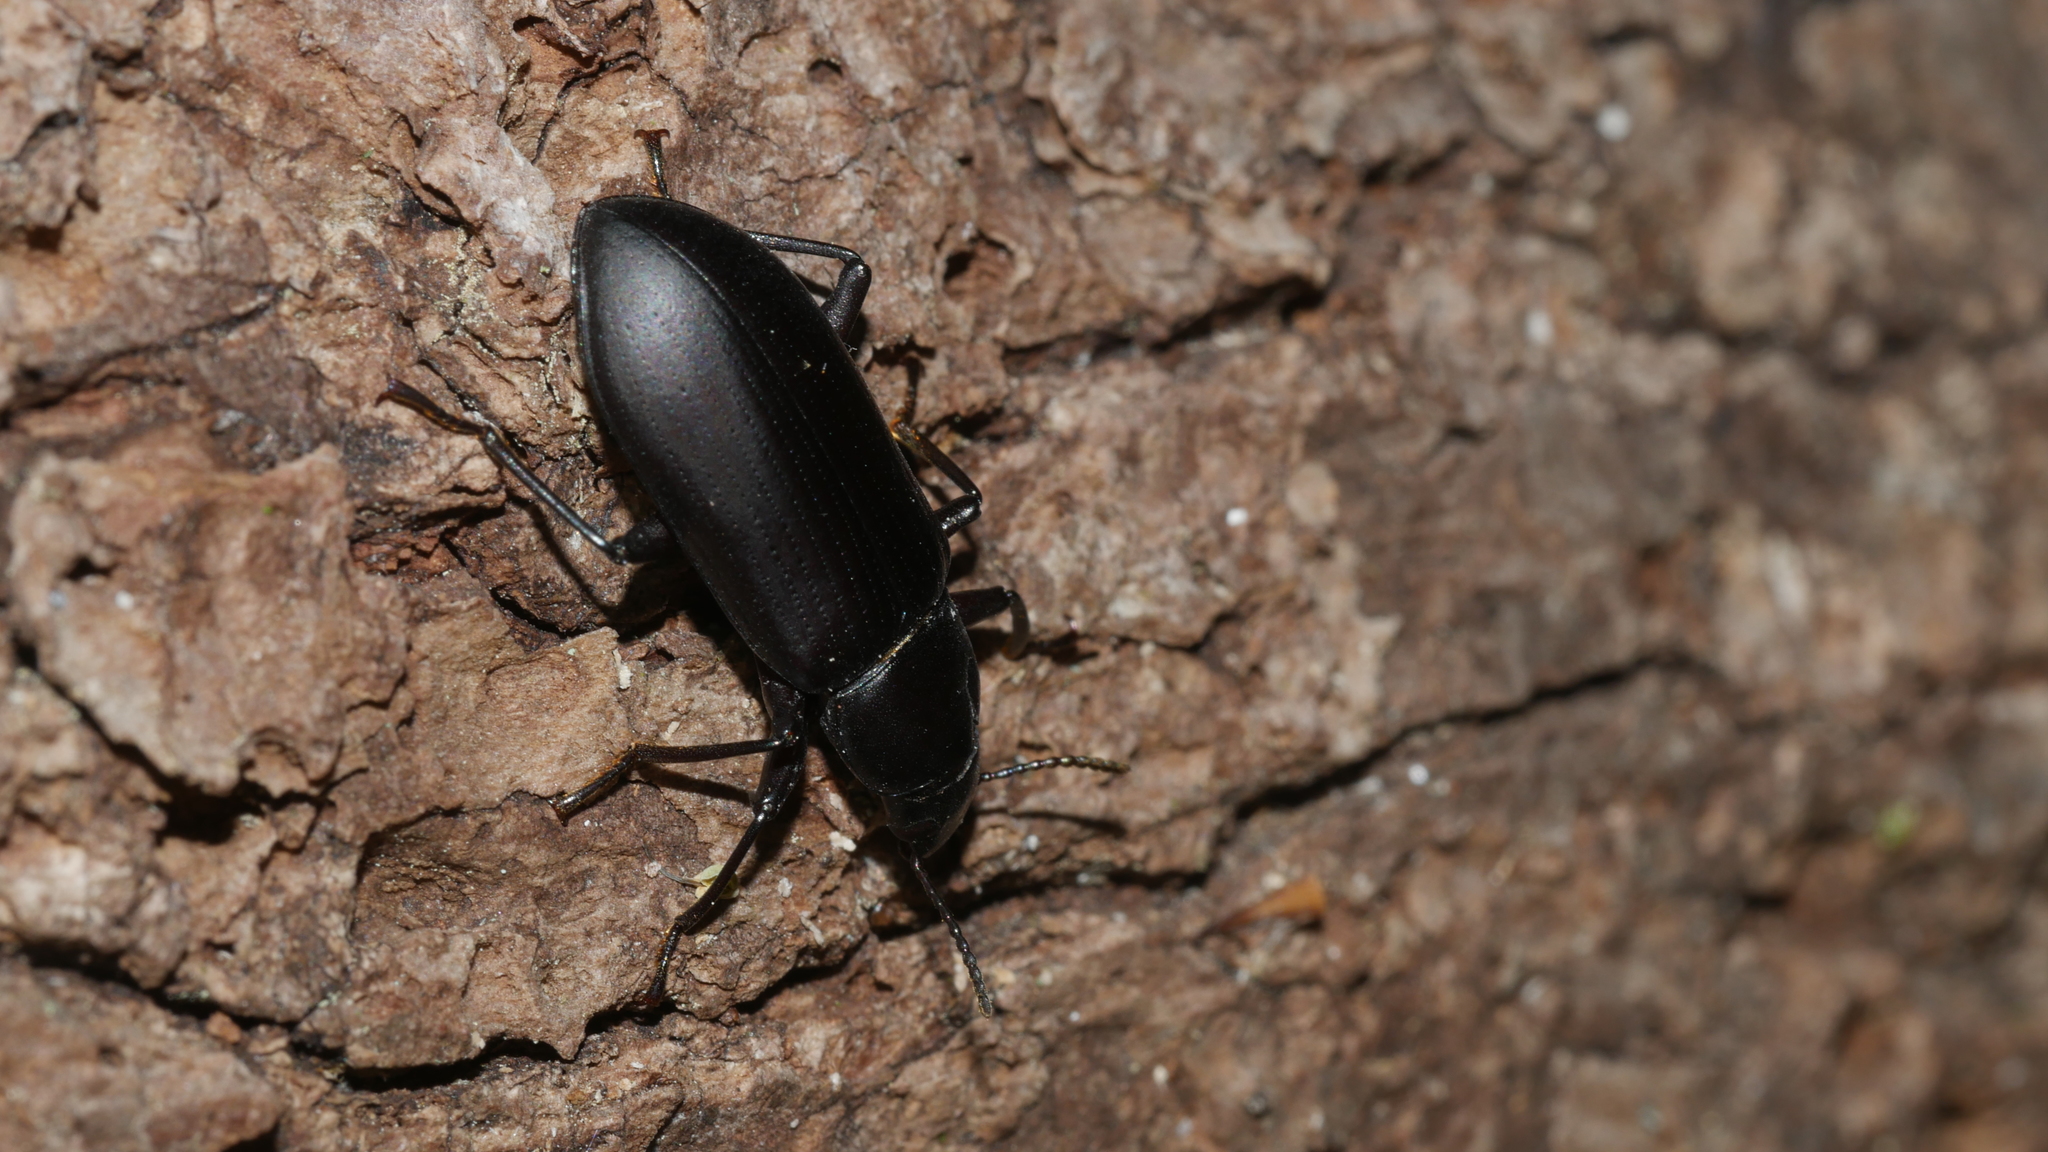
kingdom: Animalia
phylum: Arthropoda
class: Insecta
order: Coleoptera
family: Tenebrionidae
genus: Alobates
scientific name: Alobates
